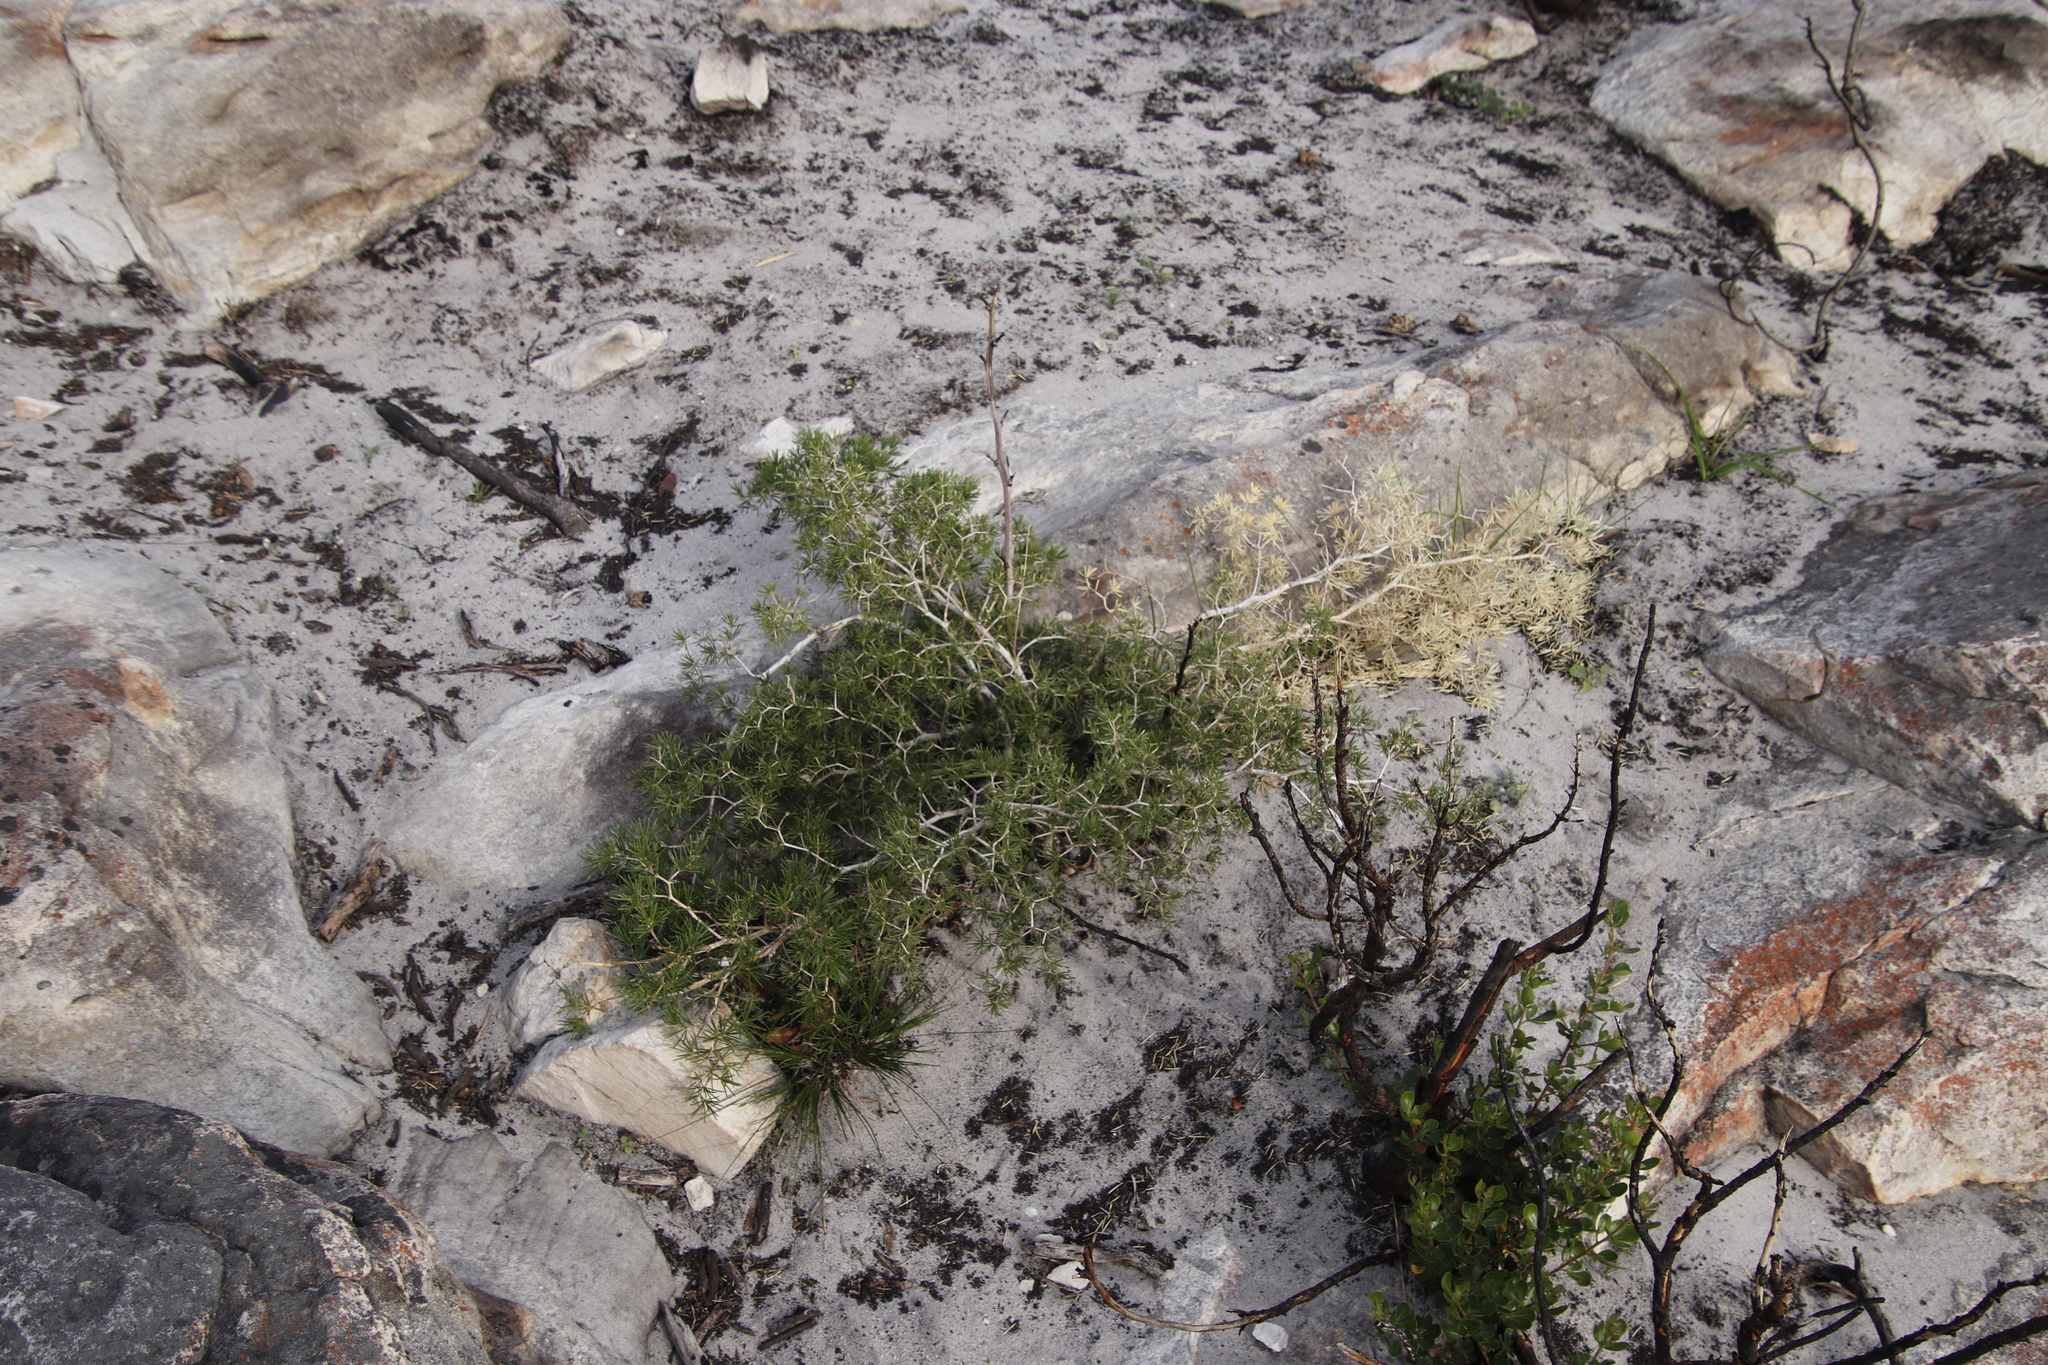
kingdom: Plantae
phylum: Tracheophyta
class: Liliopsida
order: Asparagales
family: Asparagaceae
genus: Asparagus
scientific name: Asparagus lignosus
